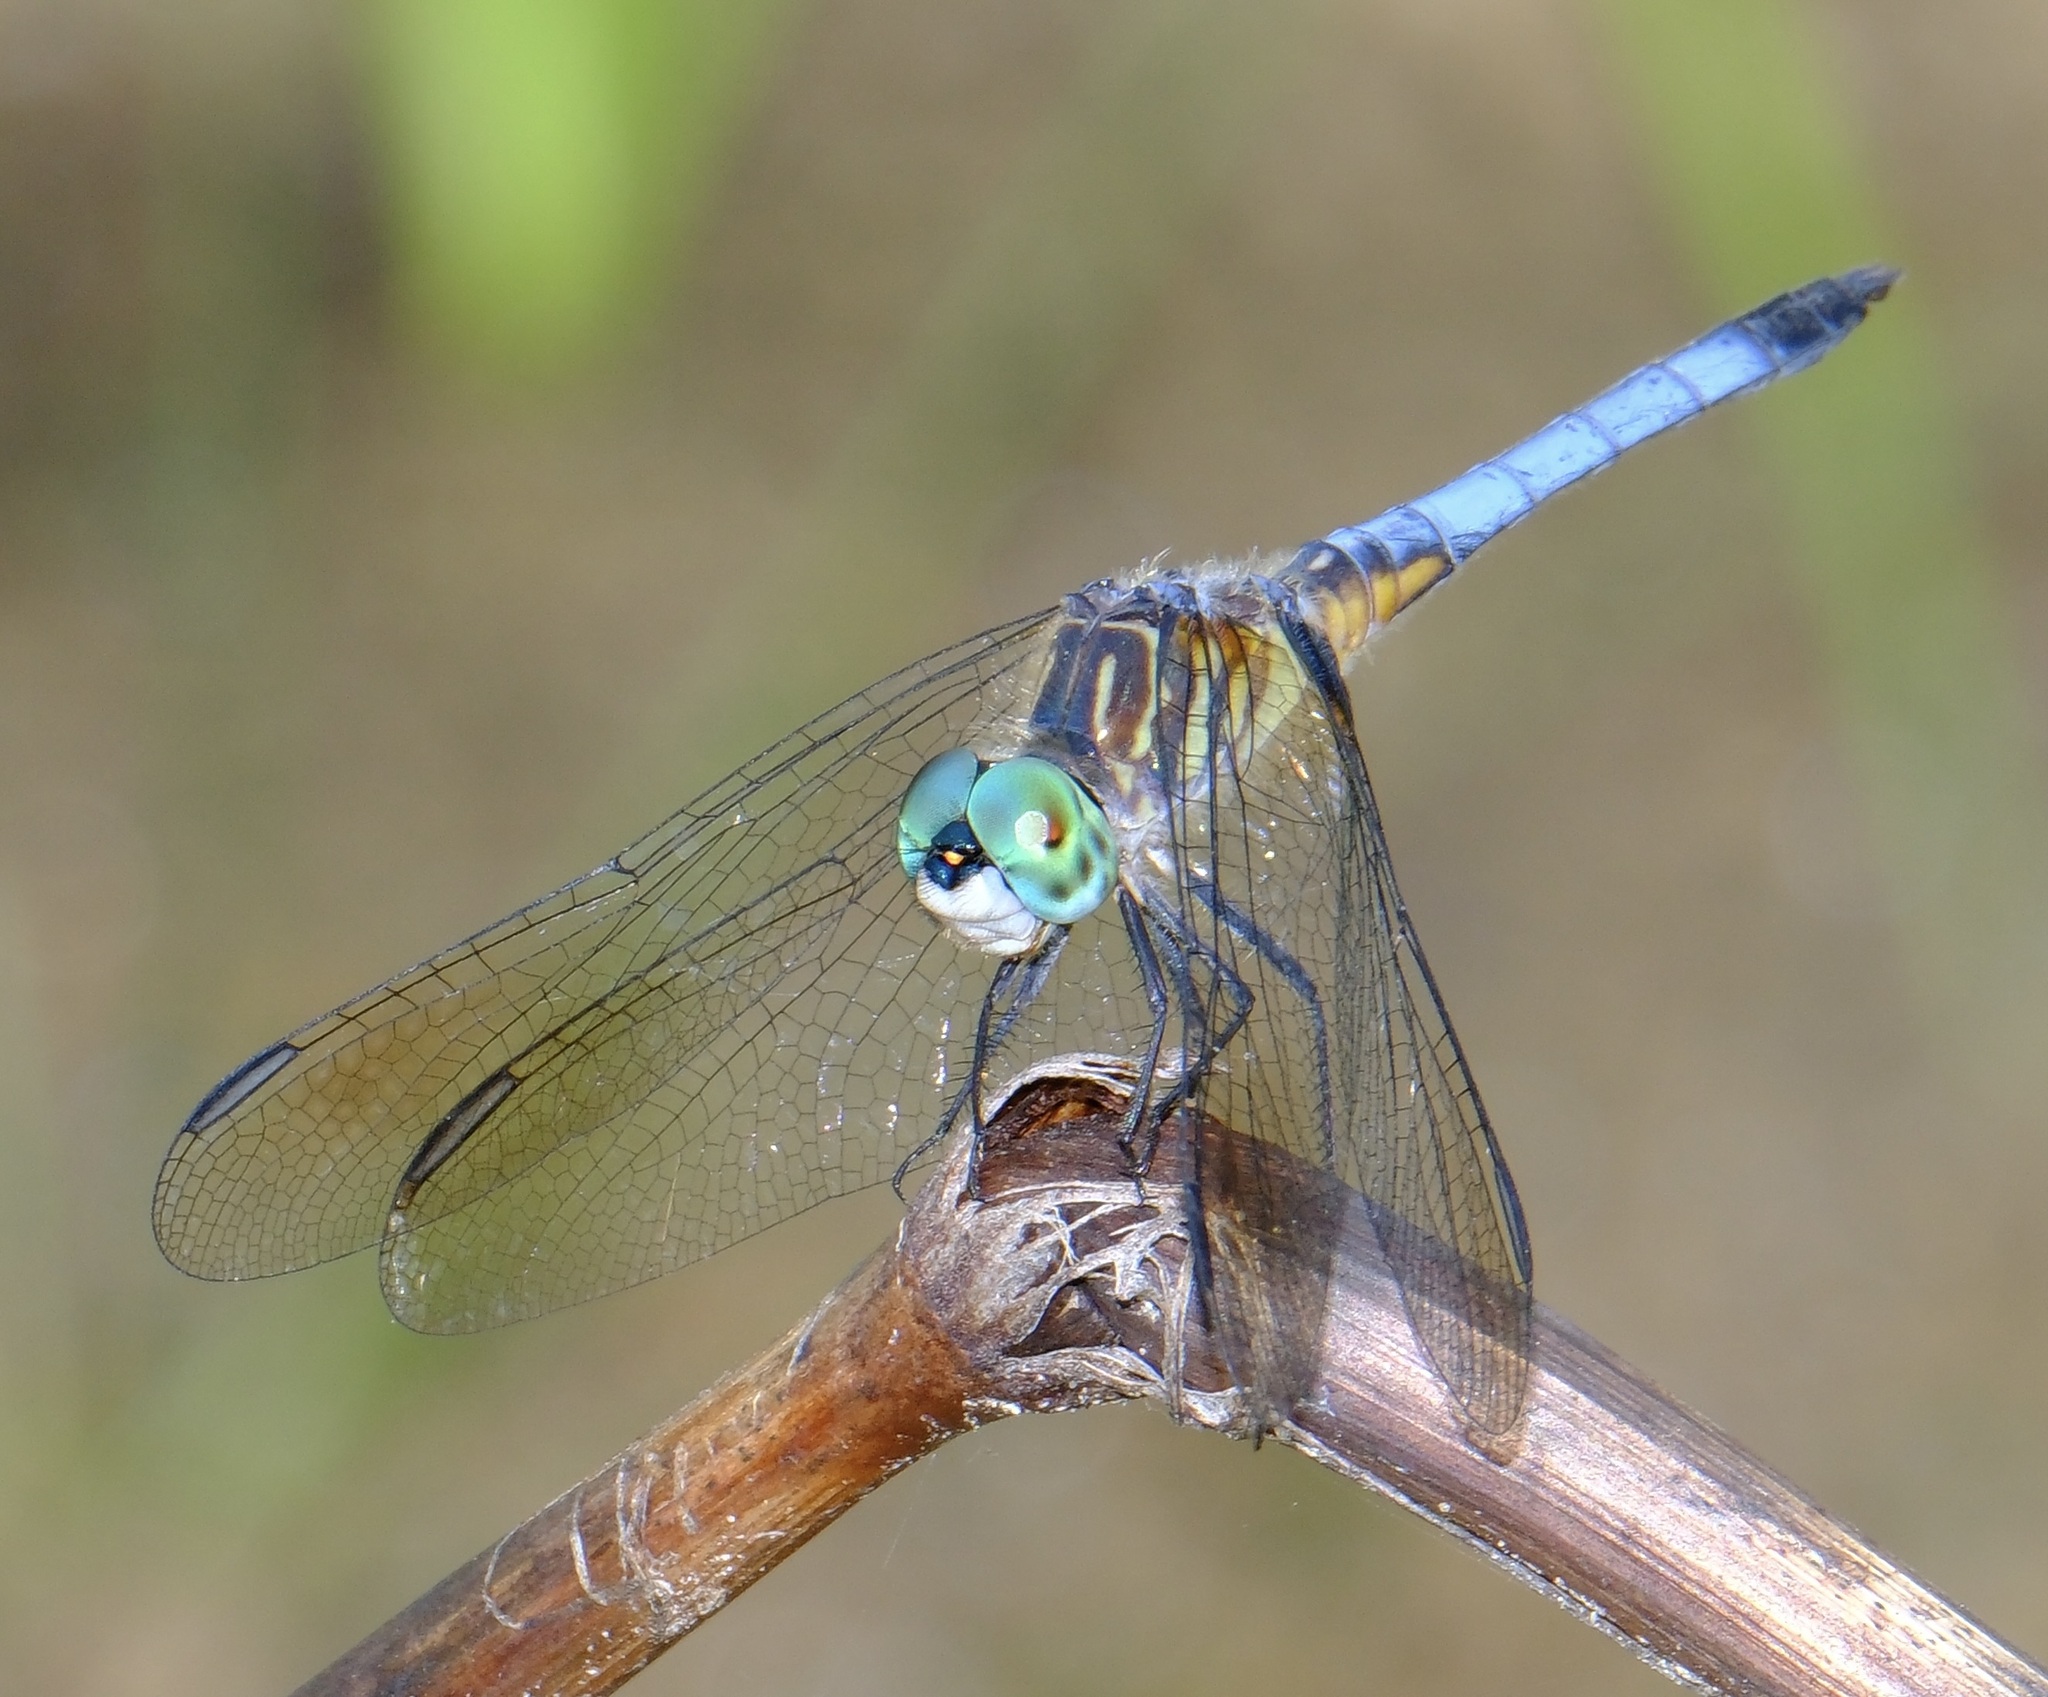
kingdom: Animalia
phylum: Arthropoda
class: Insecta
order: Odonata
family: Libellulidae
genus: Pachydiplax
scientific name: Pachydiplax longipennis
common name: Blue dasher
